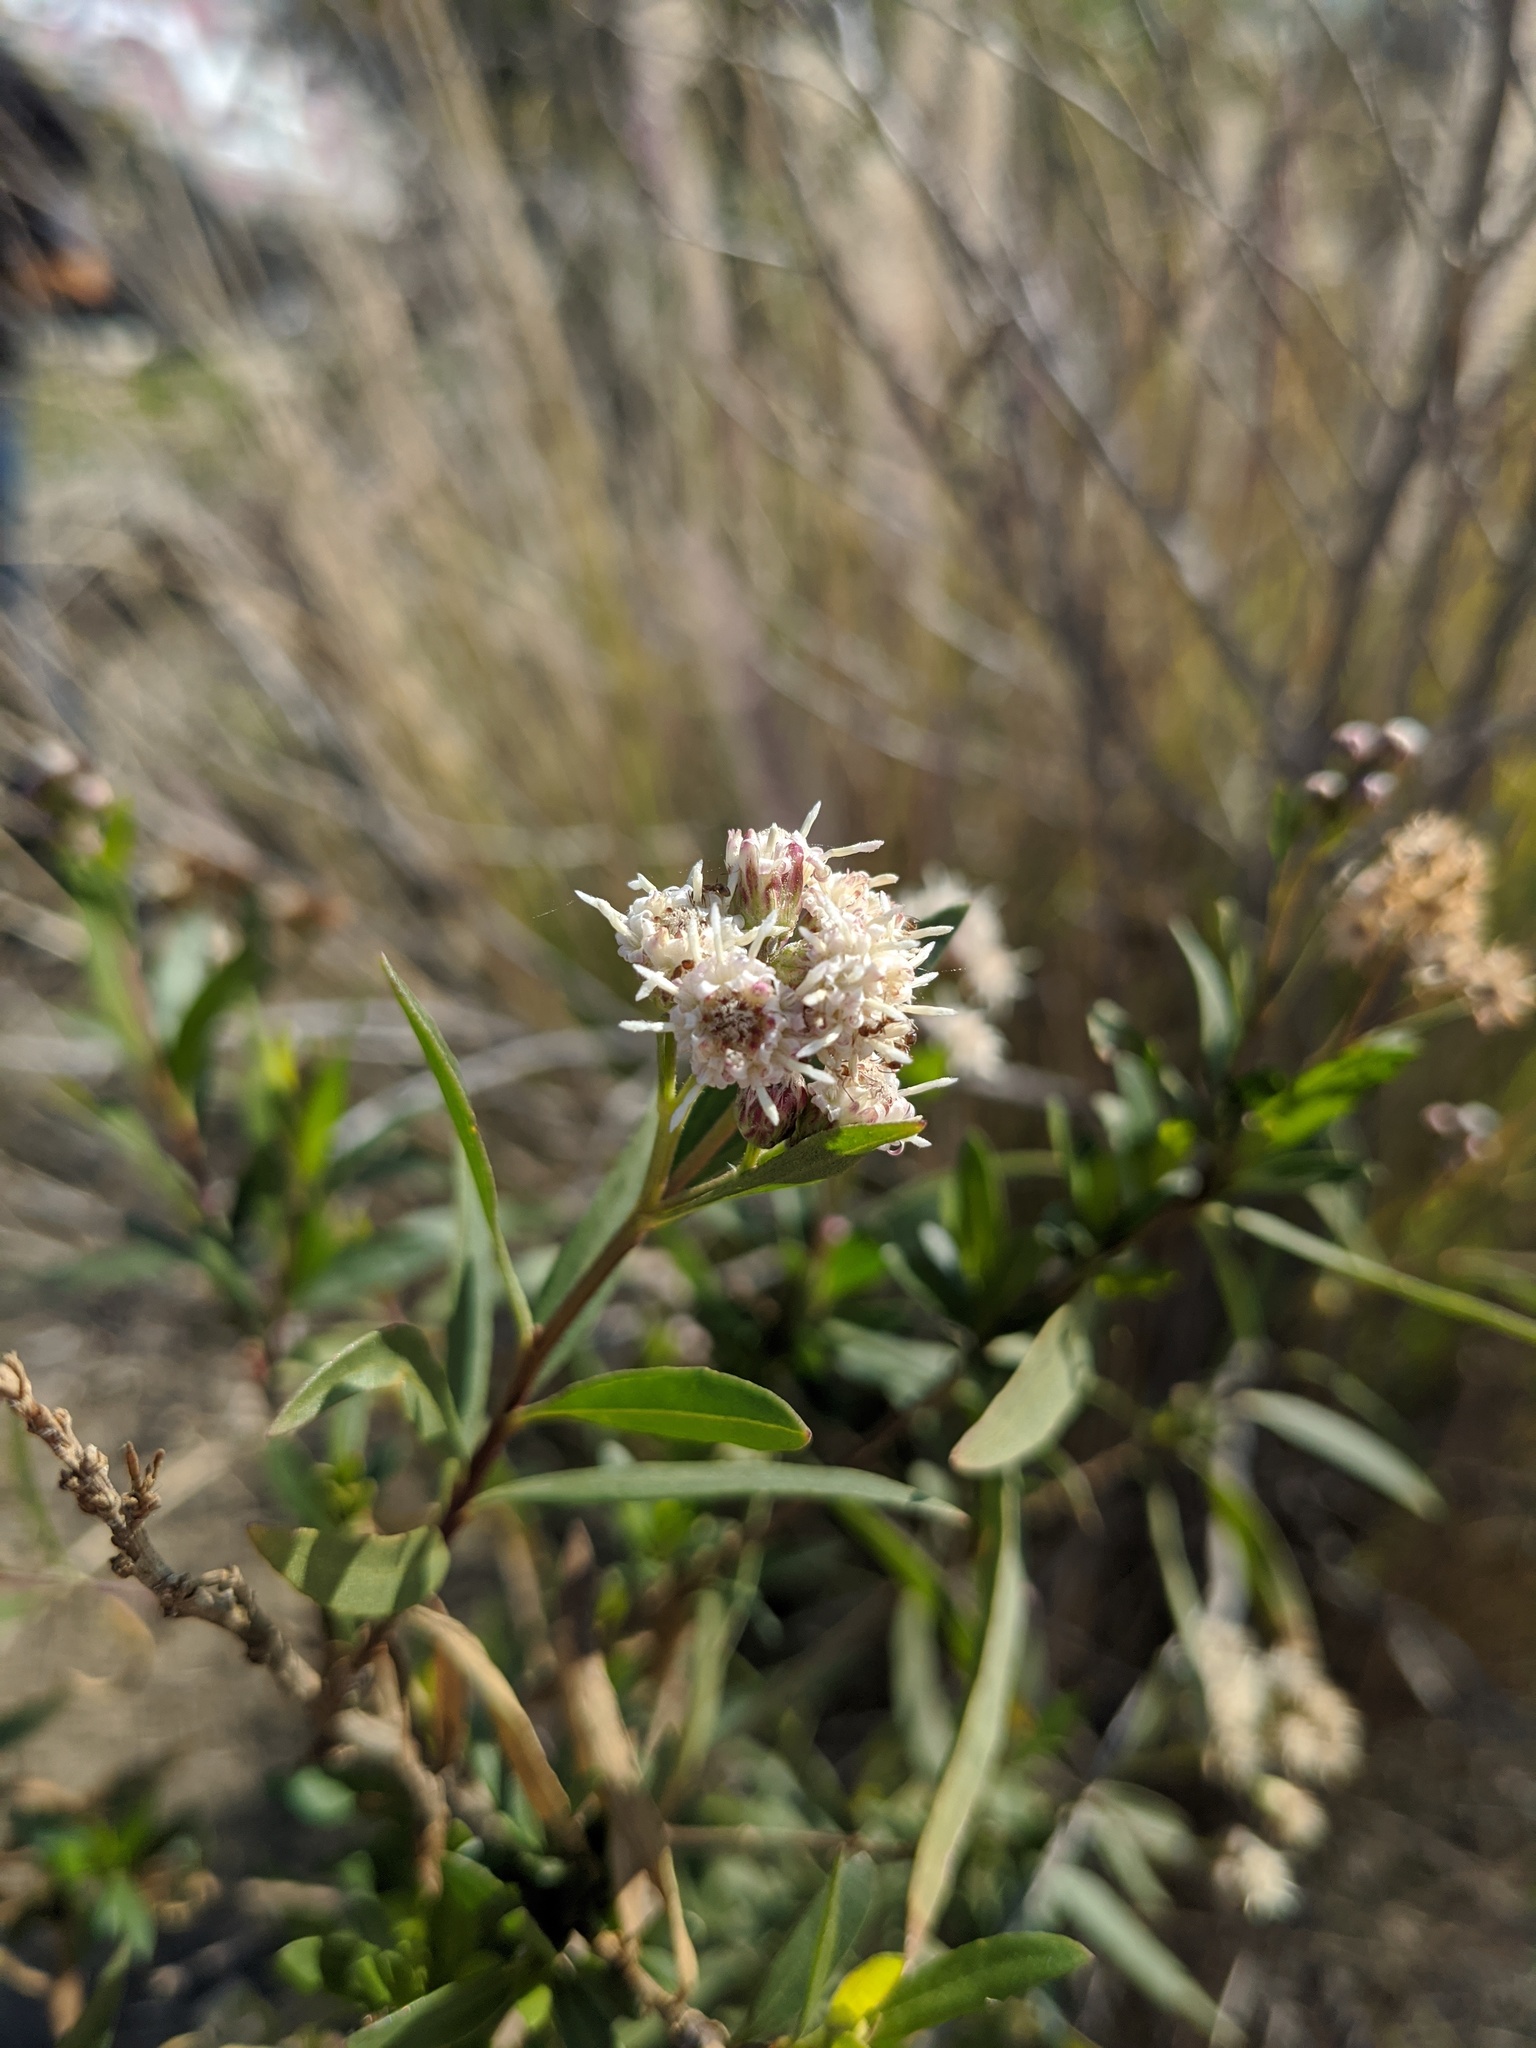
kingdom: Plantae
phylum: Tracheophyta
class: Magnoliopsida
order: Asterales
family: Asteraceae
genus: Baccharis
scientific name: Baccharis salicifolia
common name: Sticky baccharis
